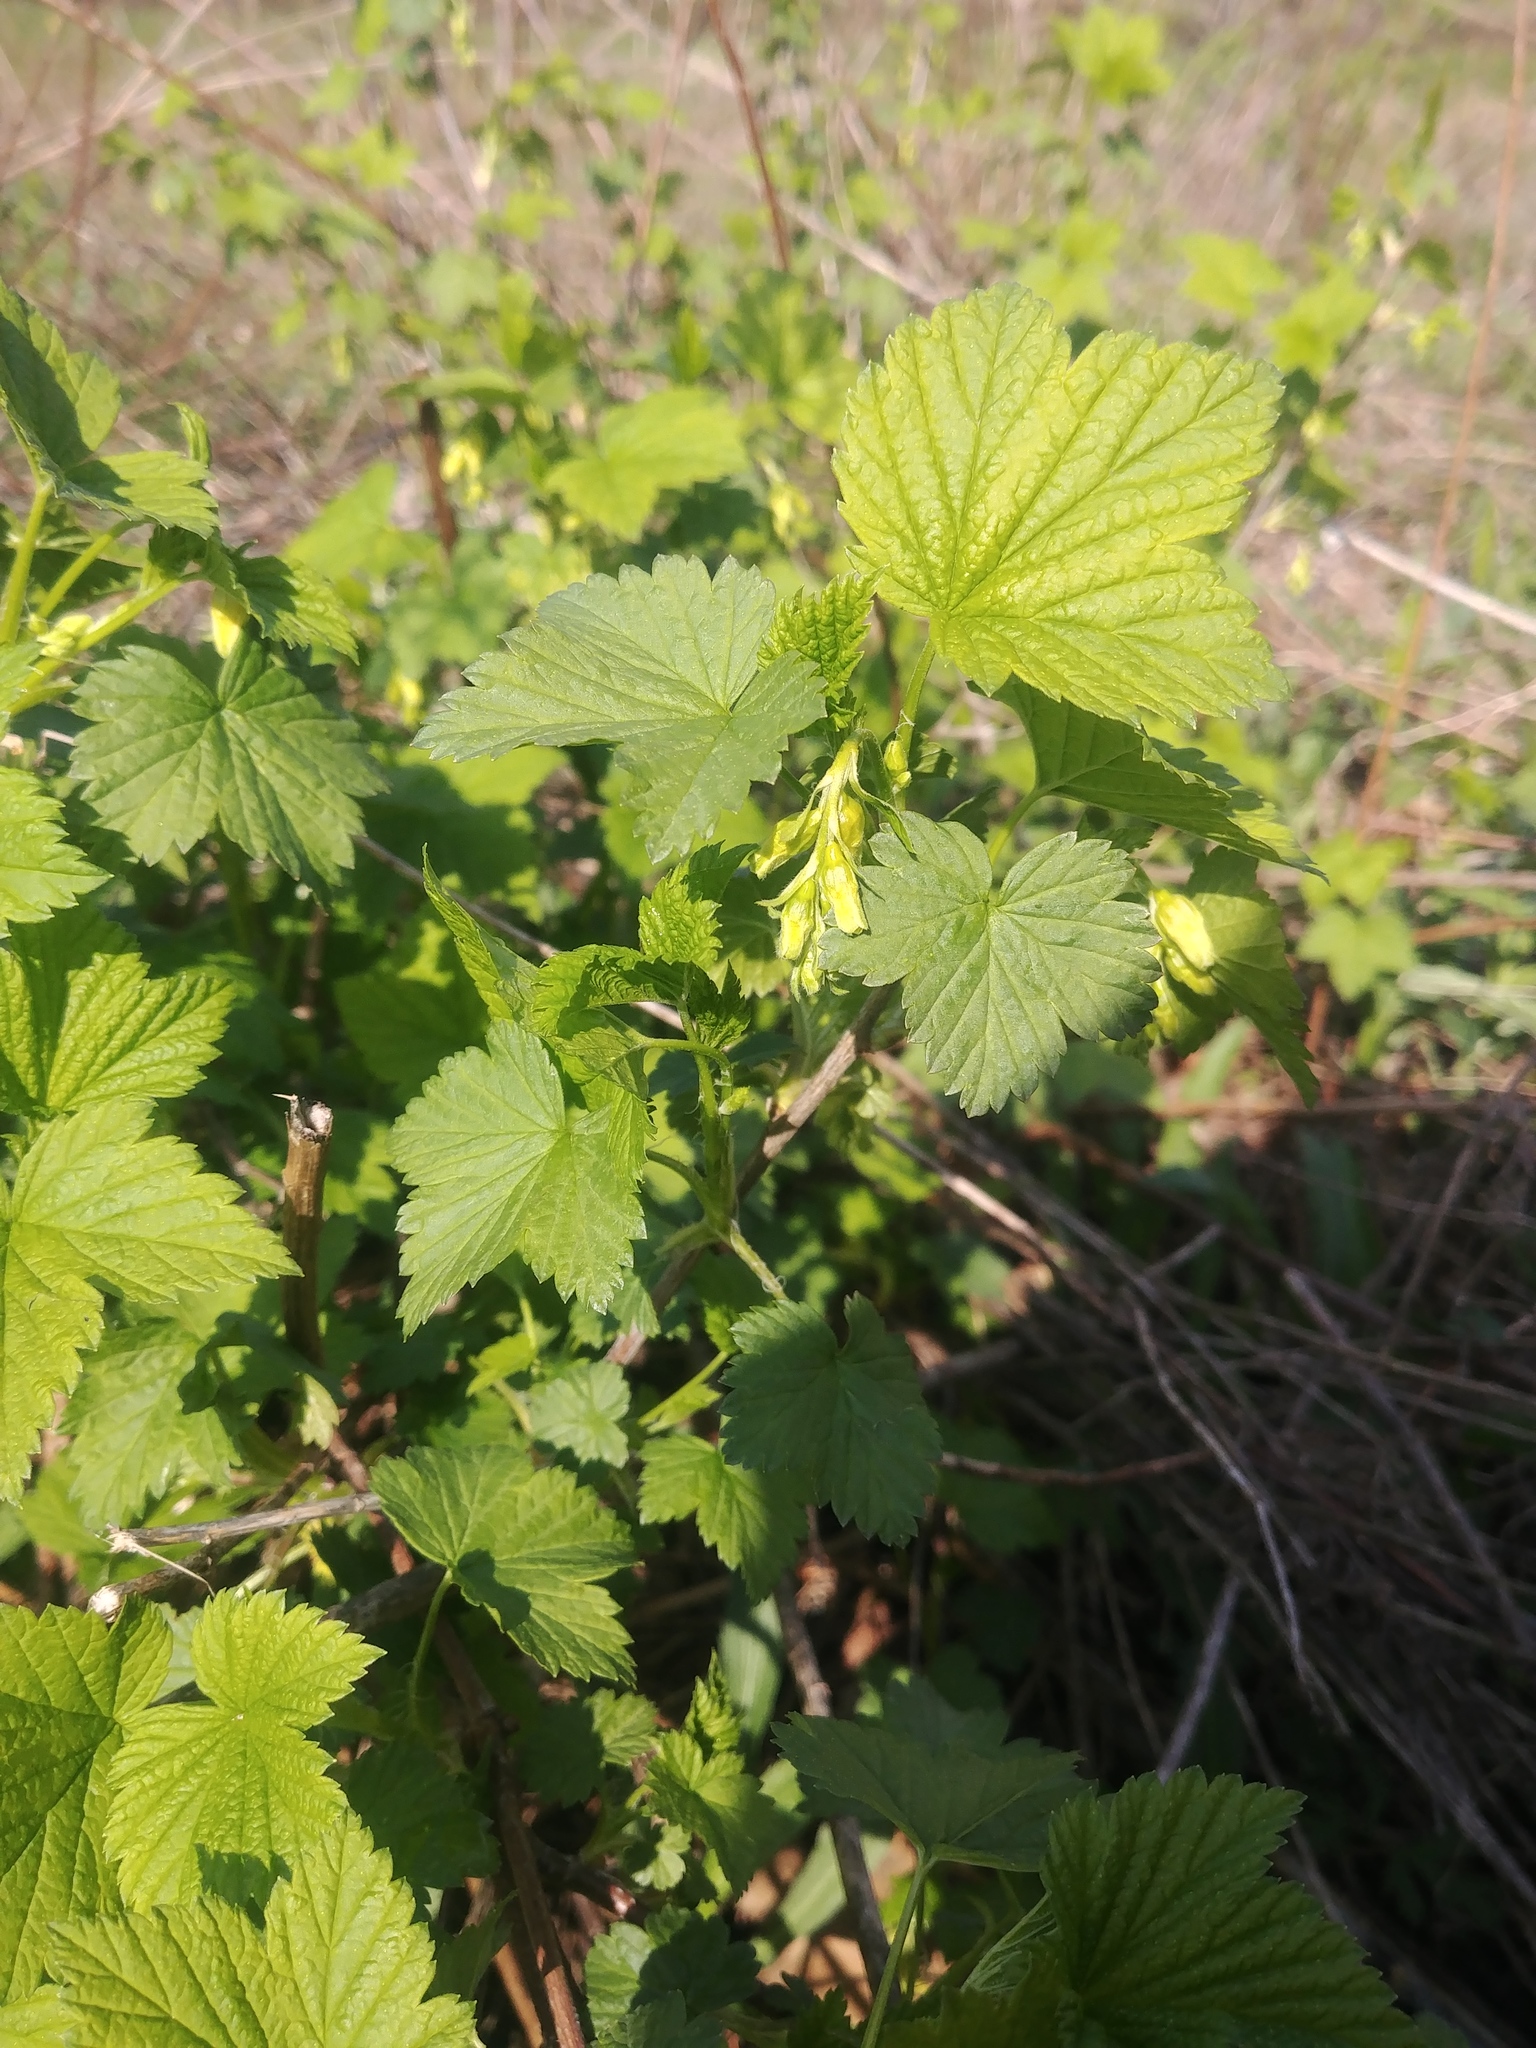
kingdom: Plantae
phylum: Tracheophyta
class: Magnoliopsida
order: Saxifragales
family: Grossulariaceae
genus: Ribes
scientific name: Ribes americanum
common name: American black currant
